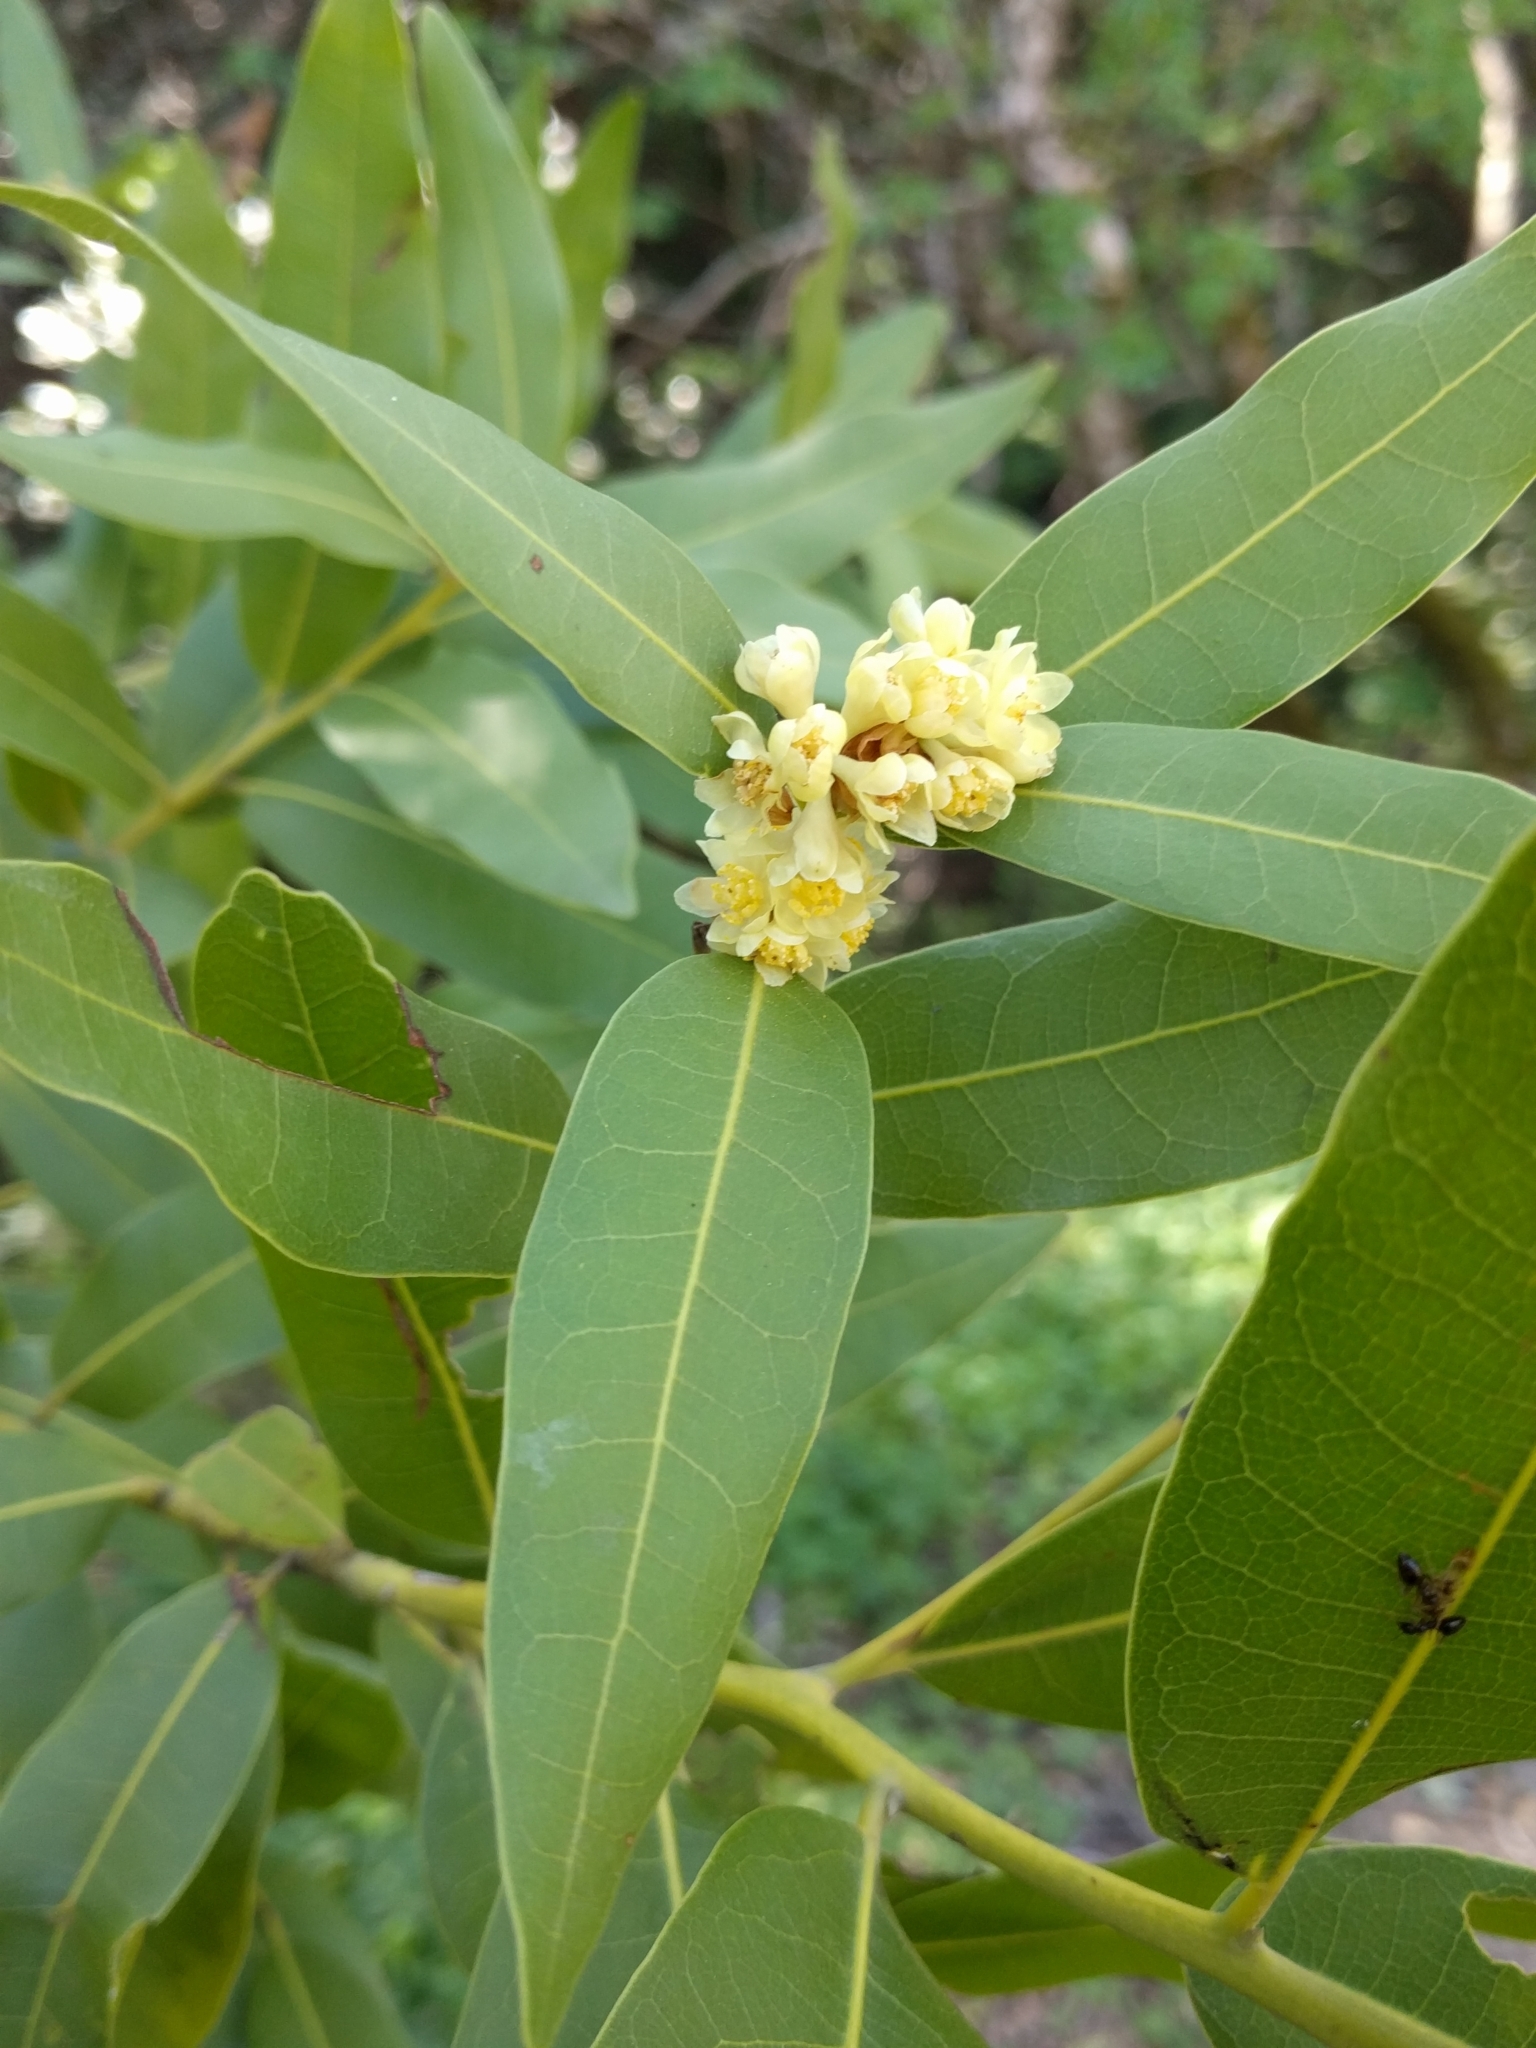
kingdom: Plantae
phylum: Tracheophyta
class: Magnoliopsida
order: Laurales
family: Lauraceae
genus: Umbellularia
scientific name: Umbellularia californica
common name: California bay
